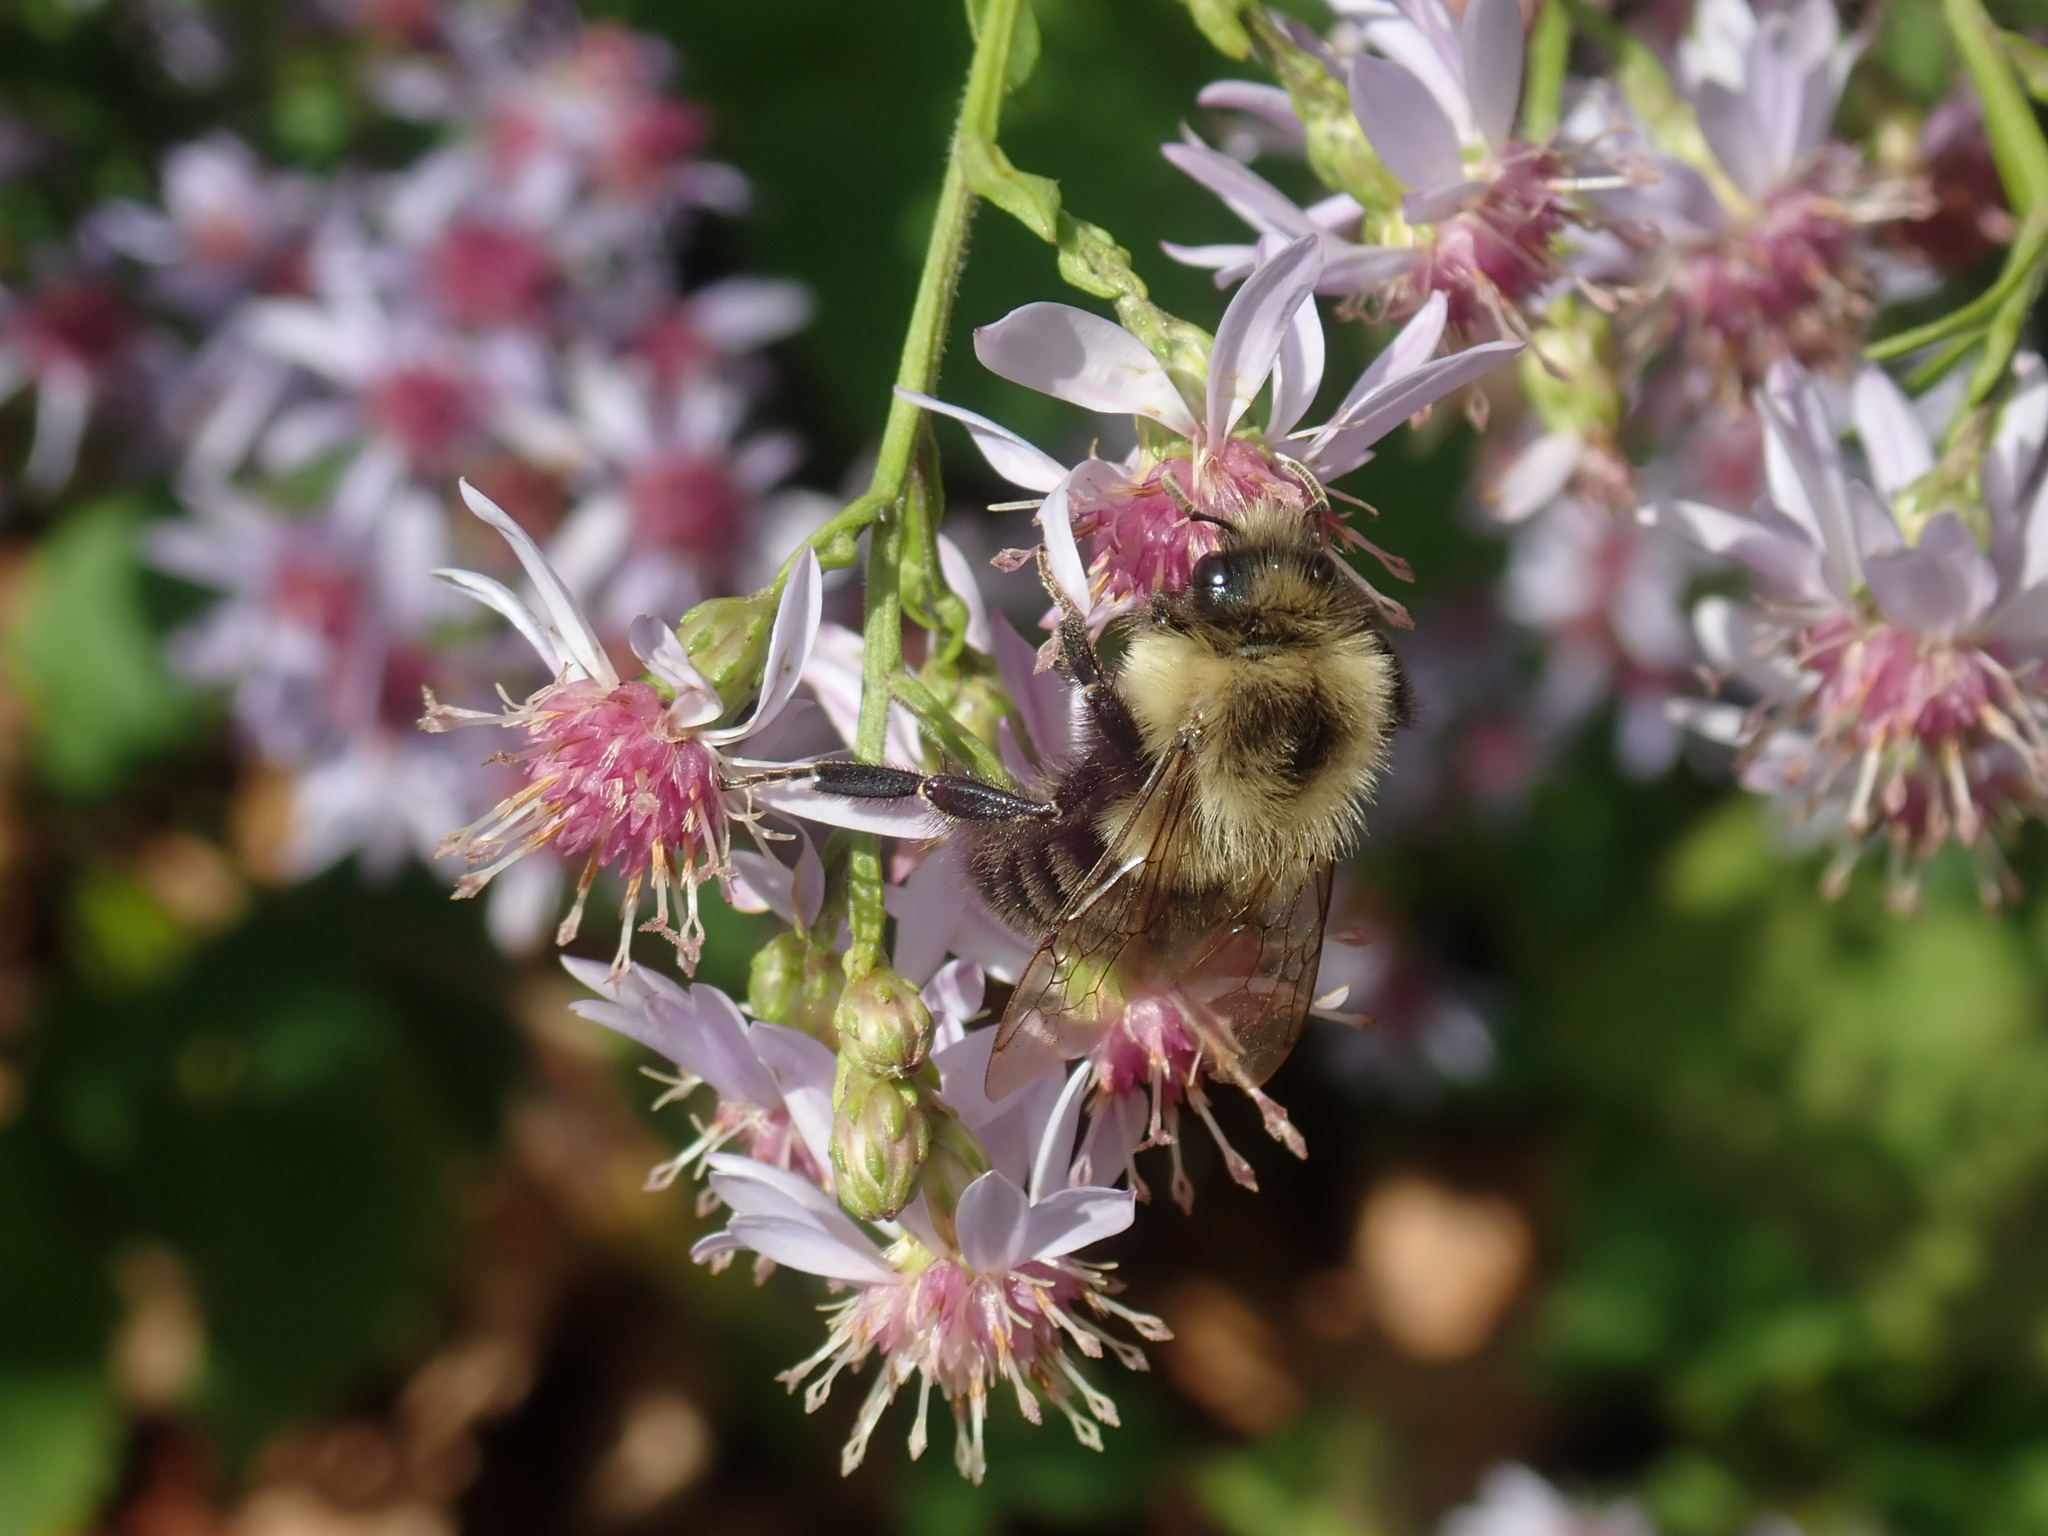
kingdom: Animalia
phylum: Arthropoda
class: Insecta
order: Hymenoptera
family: Apidae
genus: Bombus
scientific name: Bombus impatiens
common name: Common eastern bumble bee
